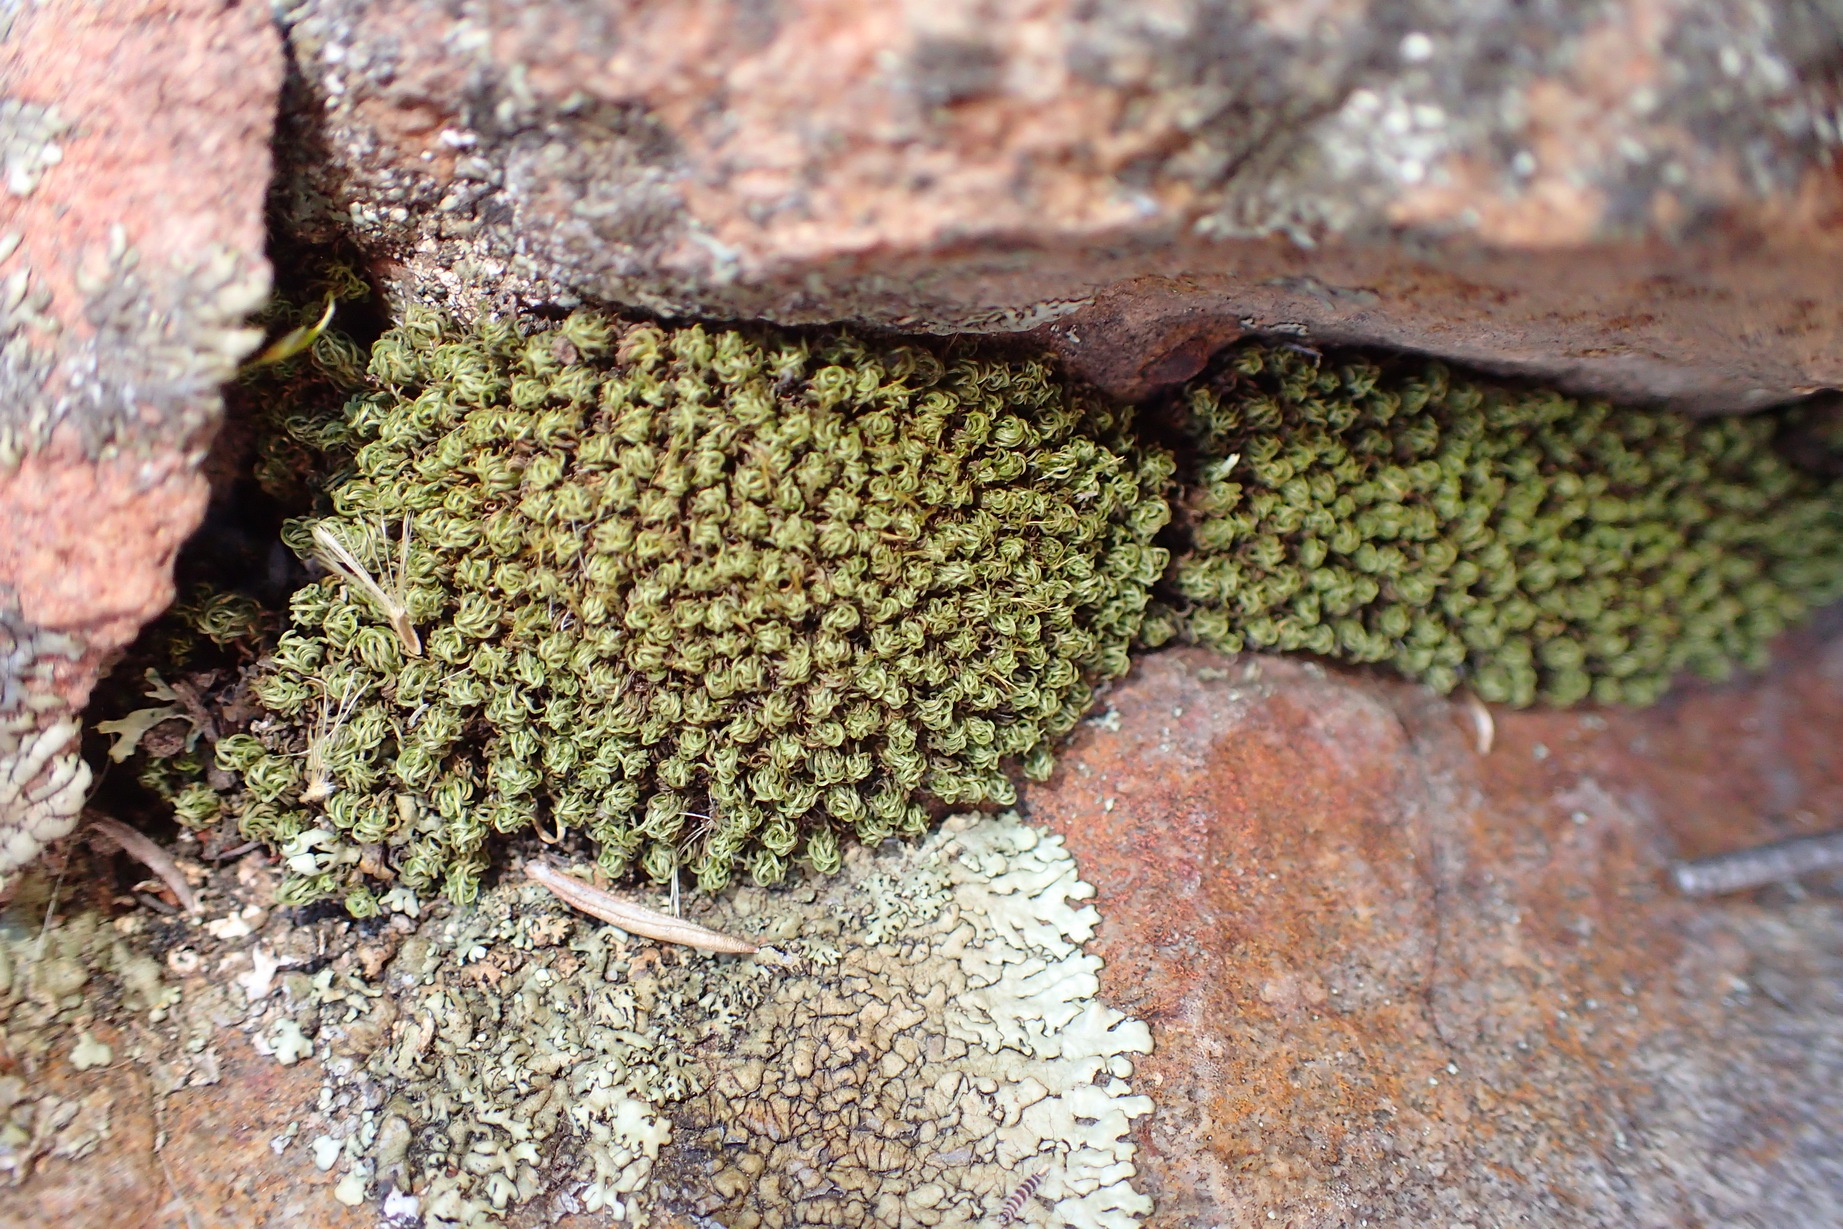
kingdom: Plantae
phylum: Bryophyta
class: Bryopsida
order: Pottiales
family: Pottiaceae
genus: Trichostomum
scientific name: Trichostomum brachydontium
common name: Variable crisp-moss
